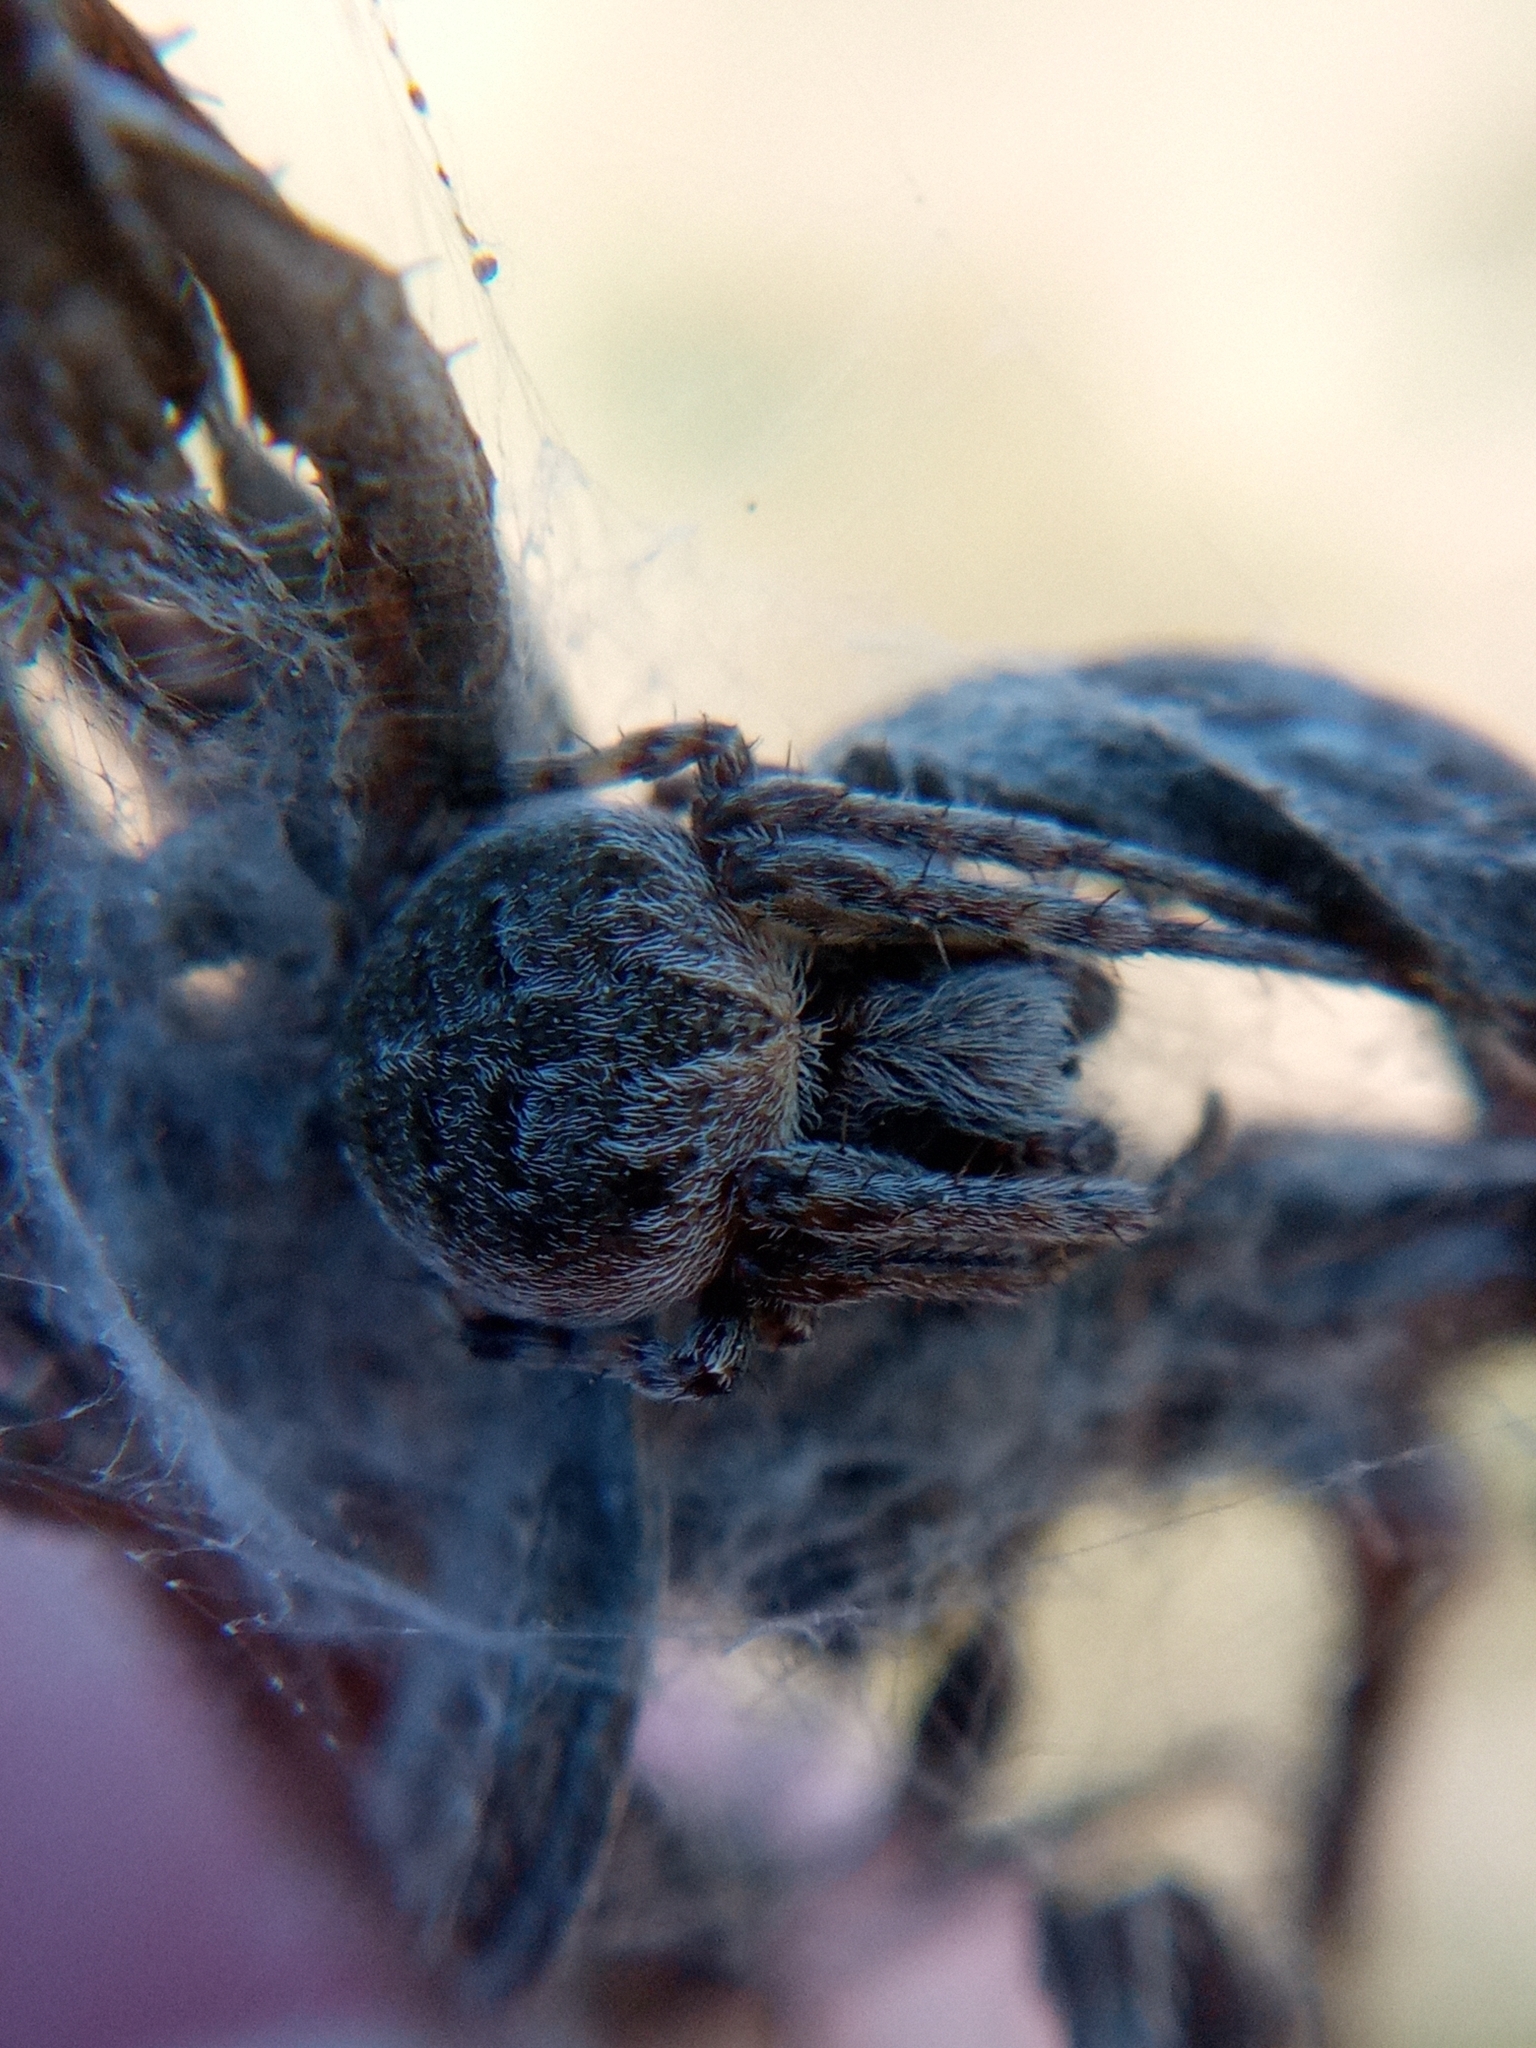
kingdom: Animalia
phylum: Arthropoda
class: Arachnida
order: Araneae
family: Araneidae
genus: Agalenatea
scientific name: Agalenatea redii
